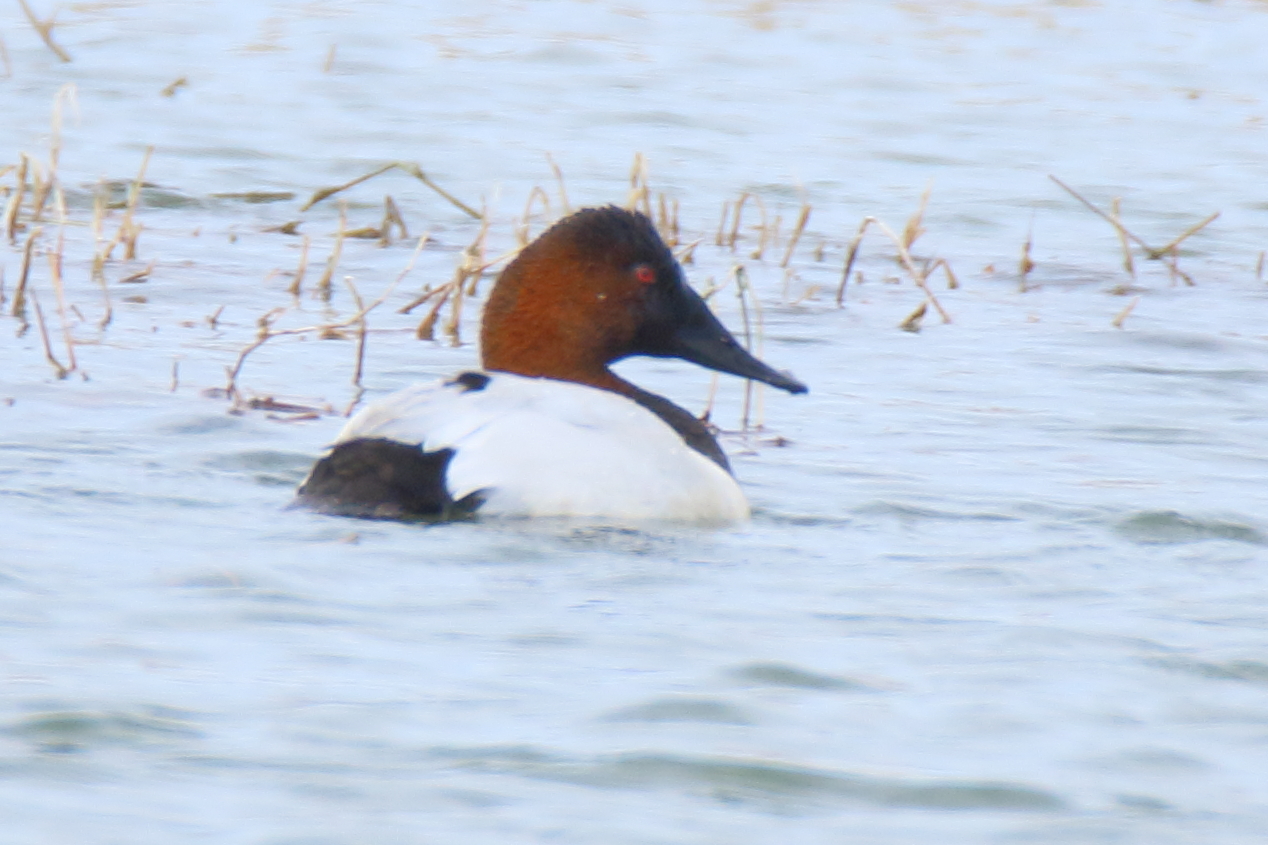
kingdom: Animalia
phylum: Chordata
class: Aves
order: Anseriformes
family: Anatidae
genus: Aythya
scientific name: Aythya valisineria
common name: Canvasback
